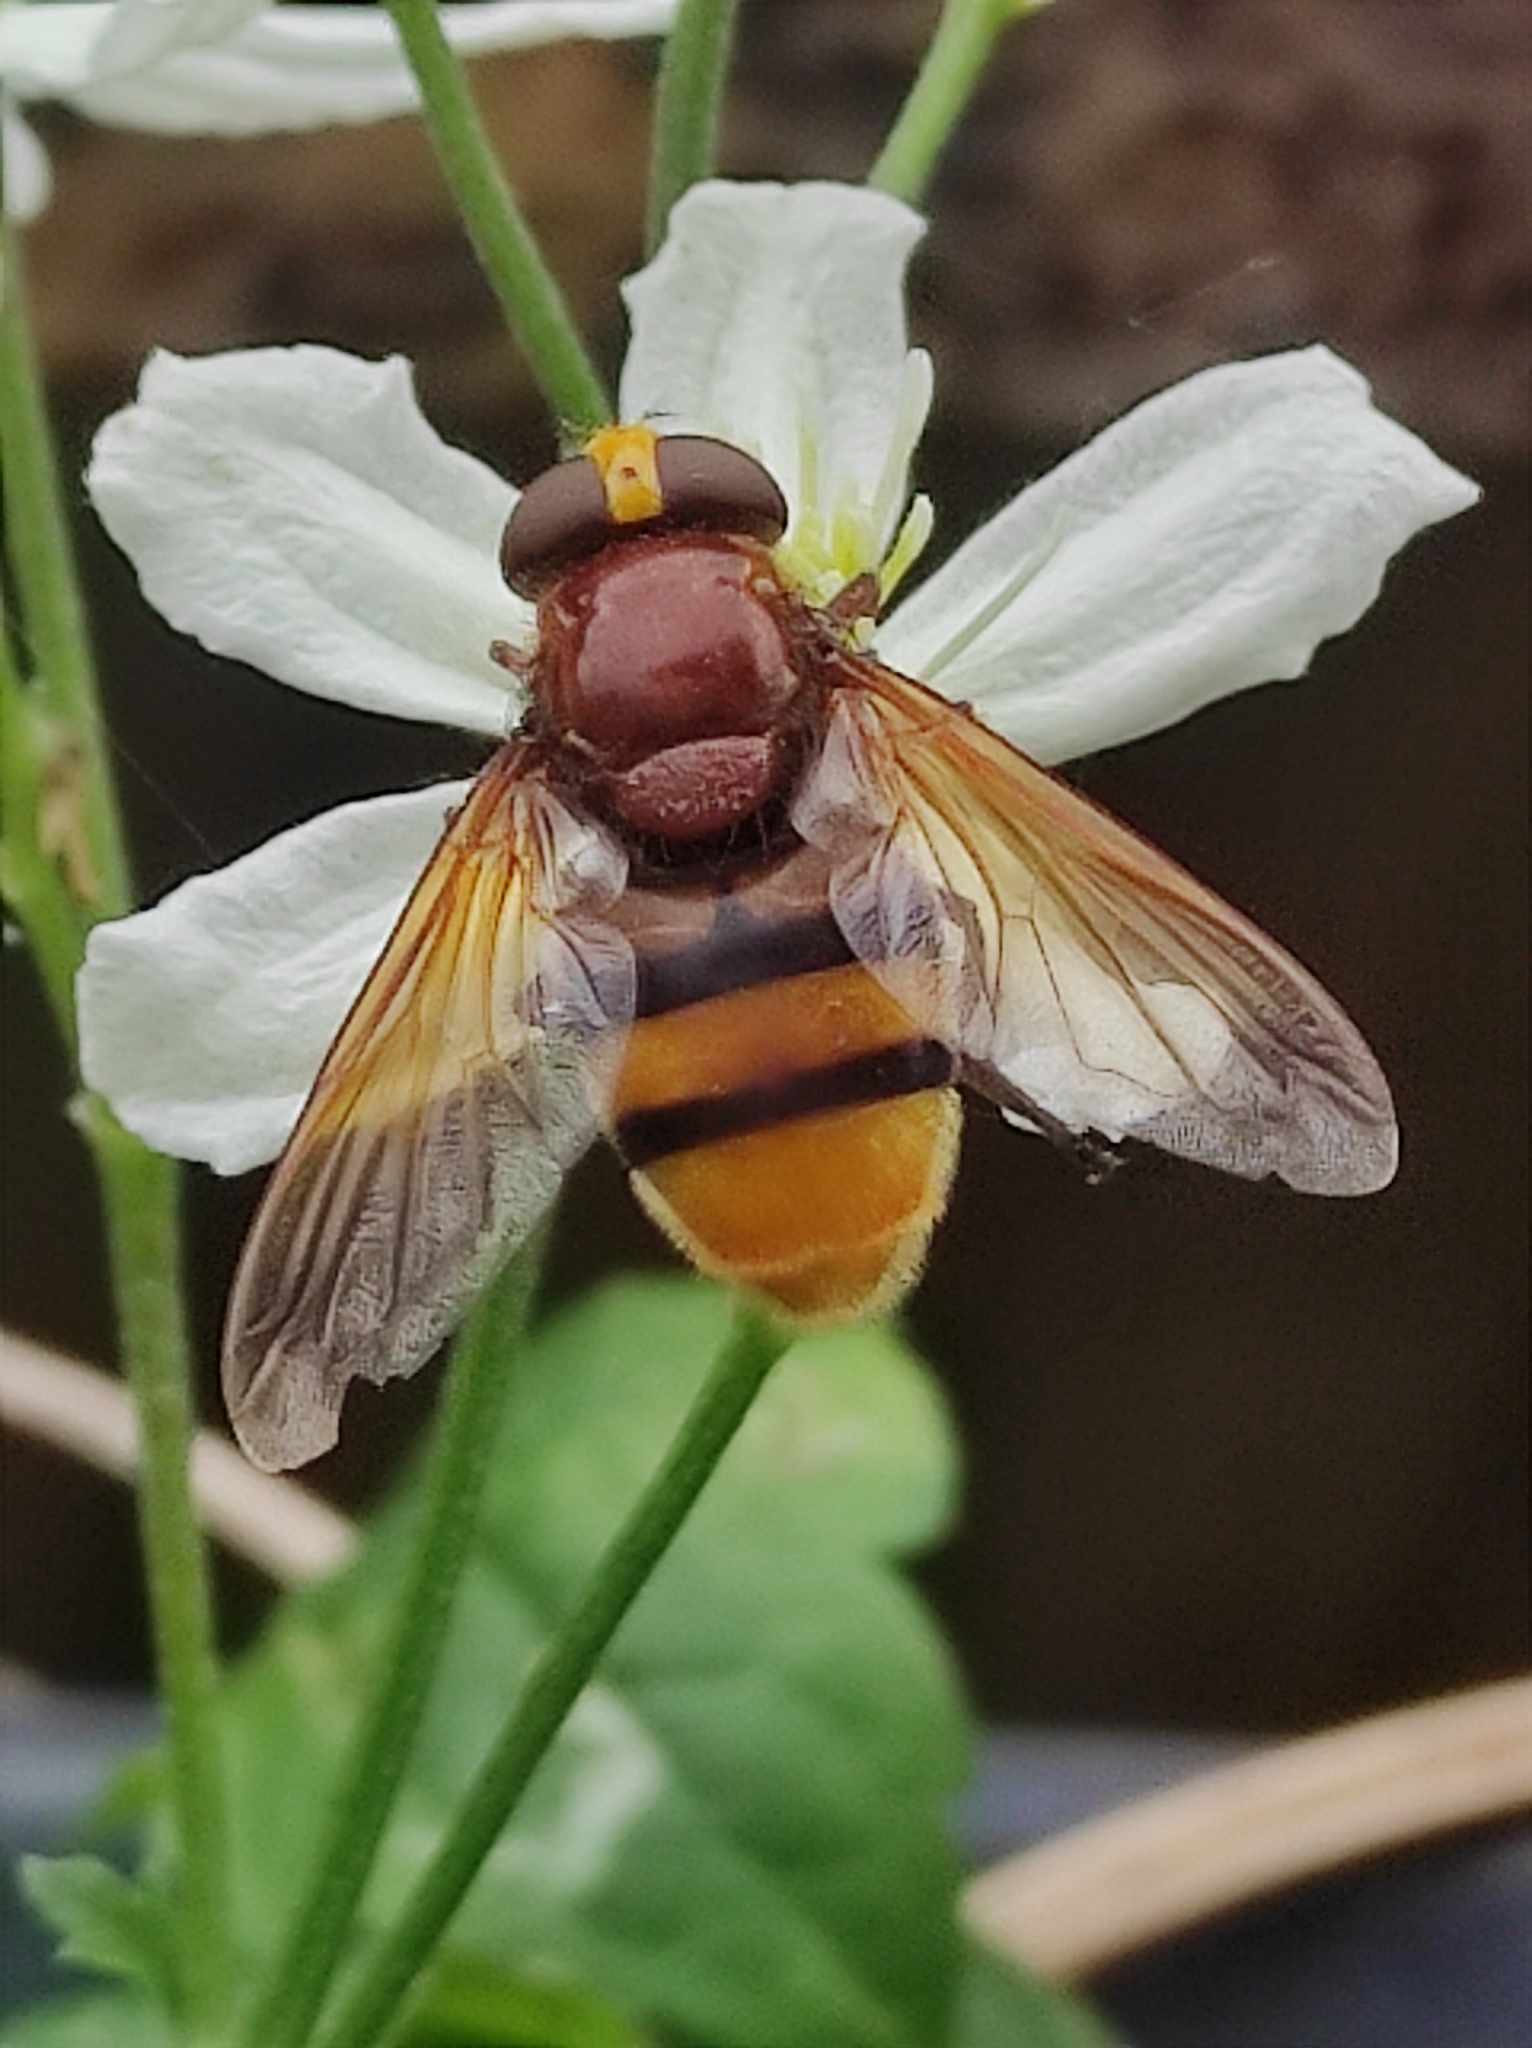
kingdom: Animalia
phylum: Arthropoda
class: Insecta
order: Diptera
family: Syrphidae
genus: Volucella
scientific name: Volucella zonaria
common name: Hornet hoverfly
